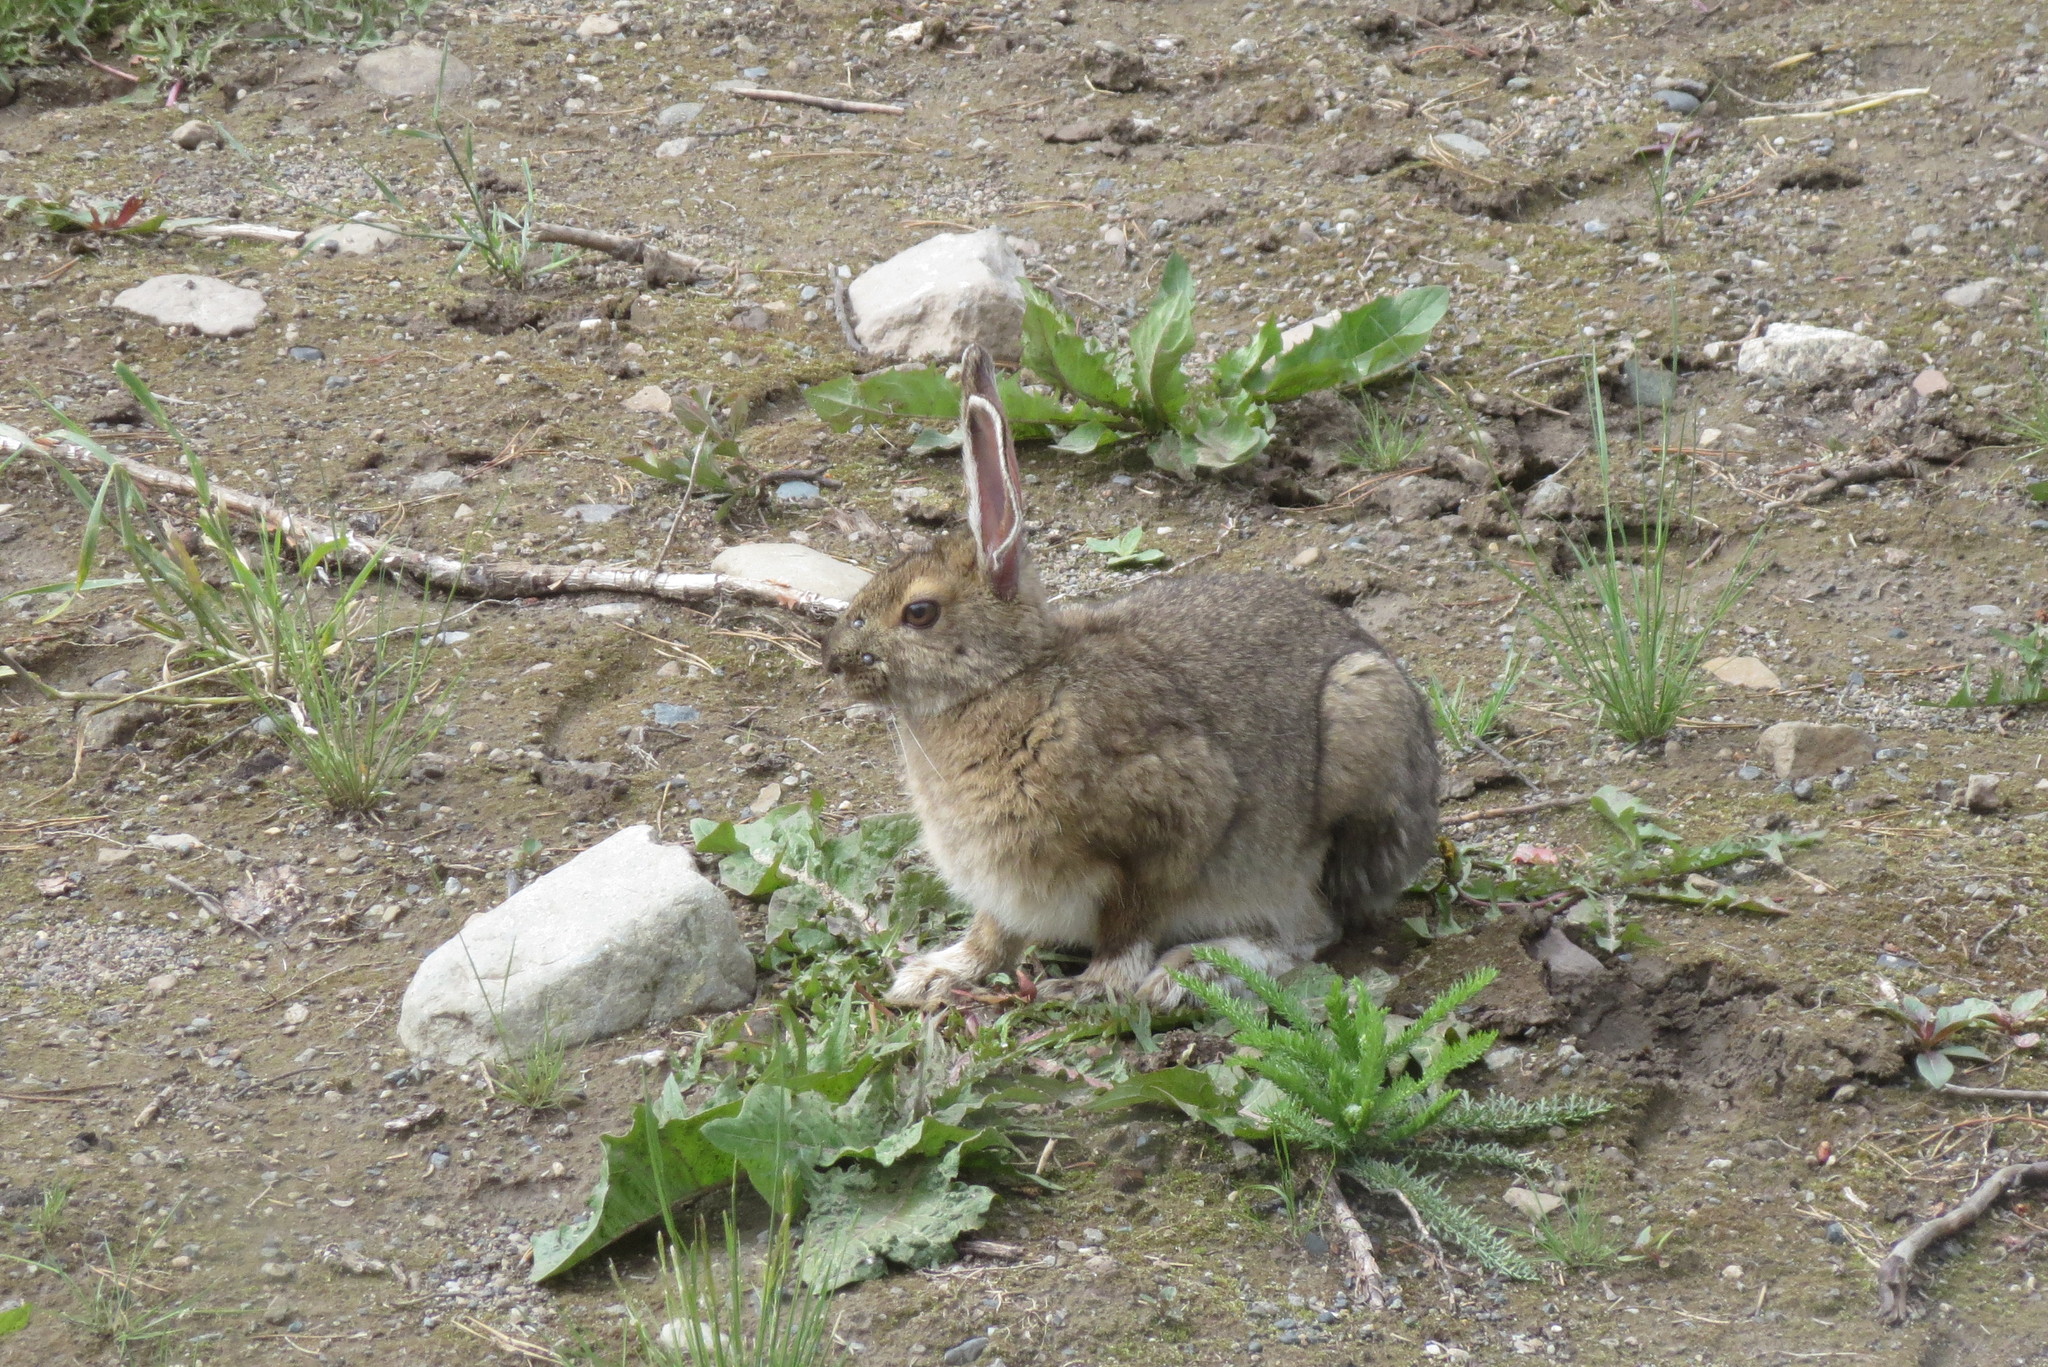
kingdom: Animalia
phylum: Chordata
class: Mammalia
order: Lagomorpha
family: Leporidae
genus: Lepus
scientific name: Lepus americanus
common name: Snowshoe hare
